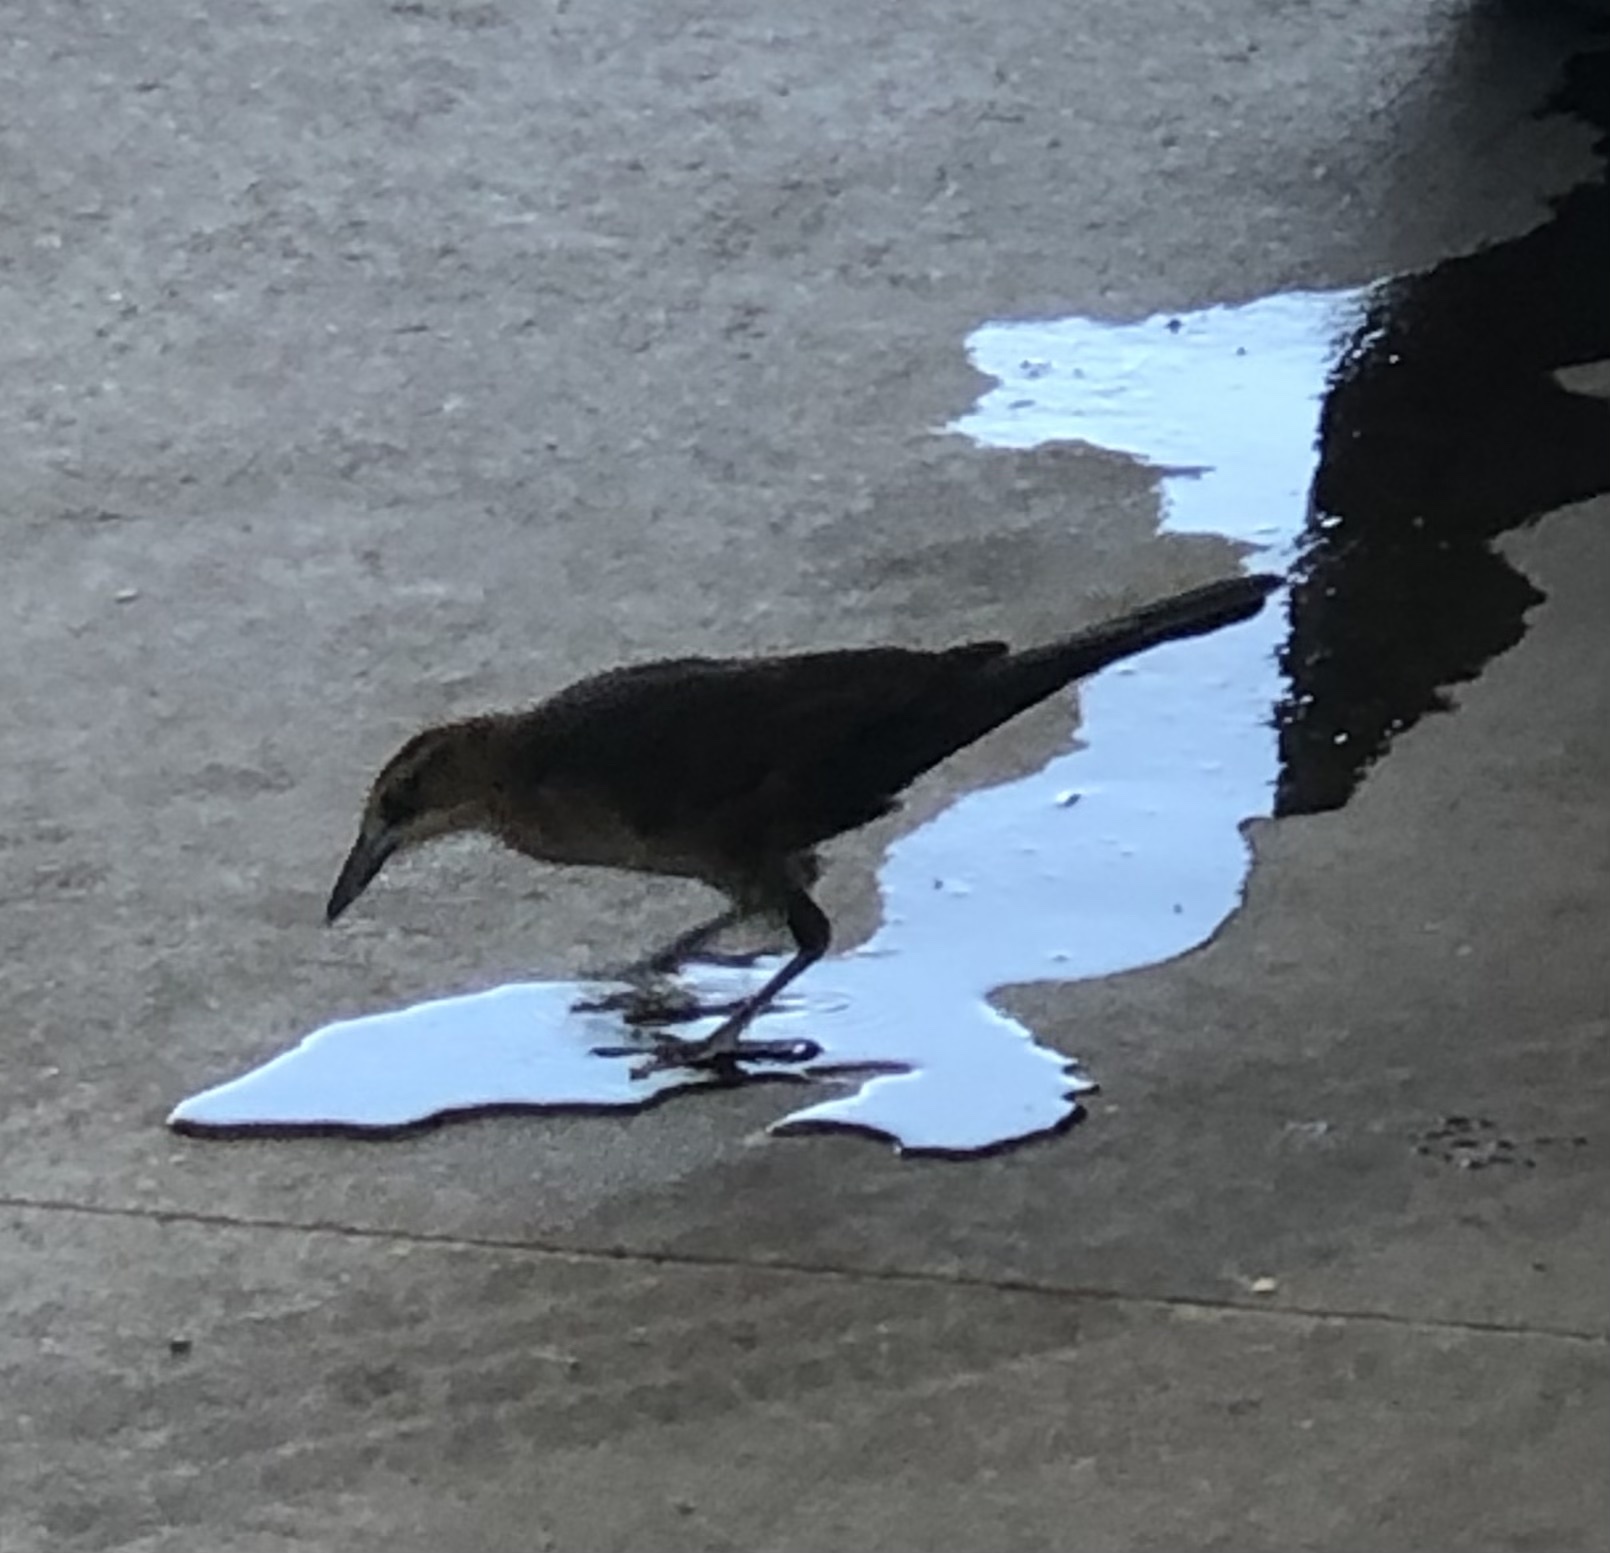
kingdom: Animalia
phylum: Chordata
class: Aves
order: Passeriformes
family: Icteridae
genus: Quiscalus
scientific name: Quiscalus mexicanus
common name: Great-tailed grackle
